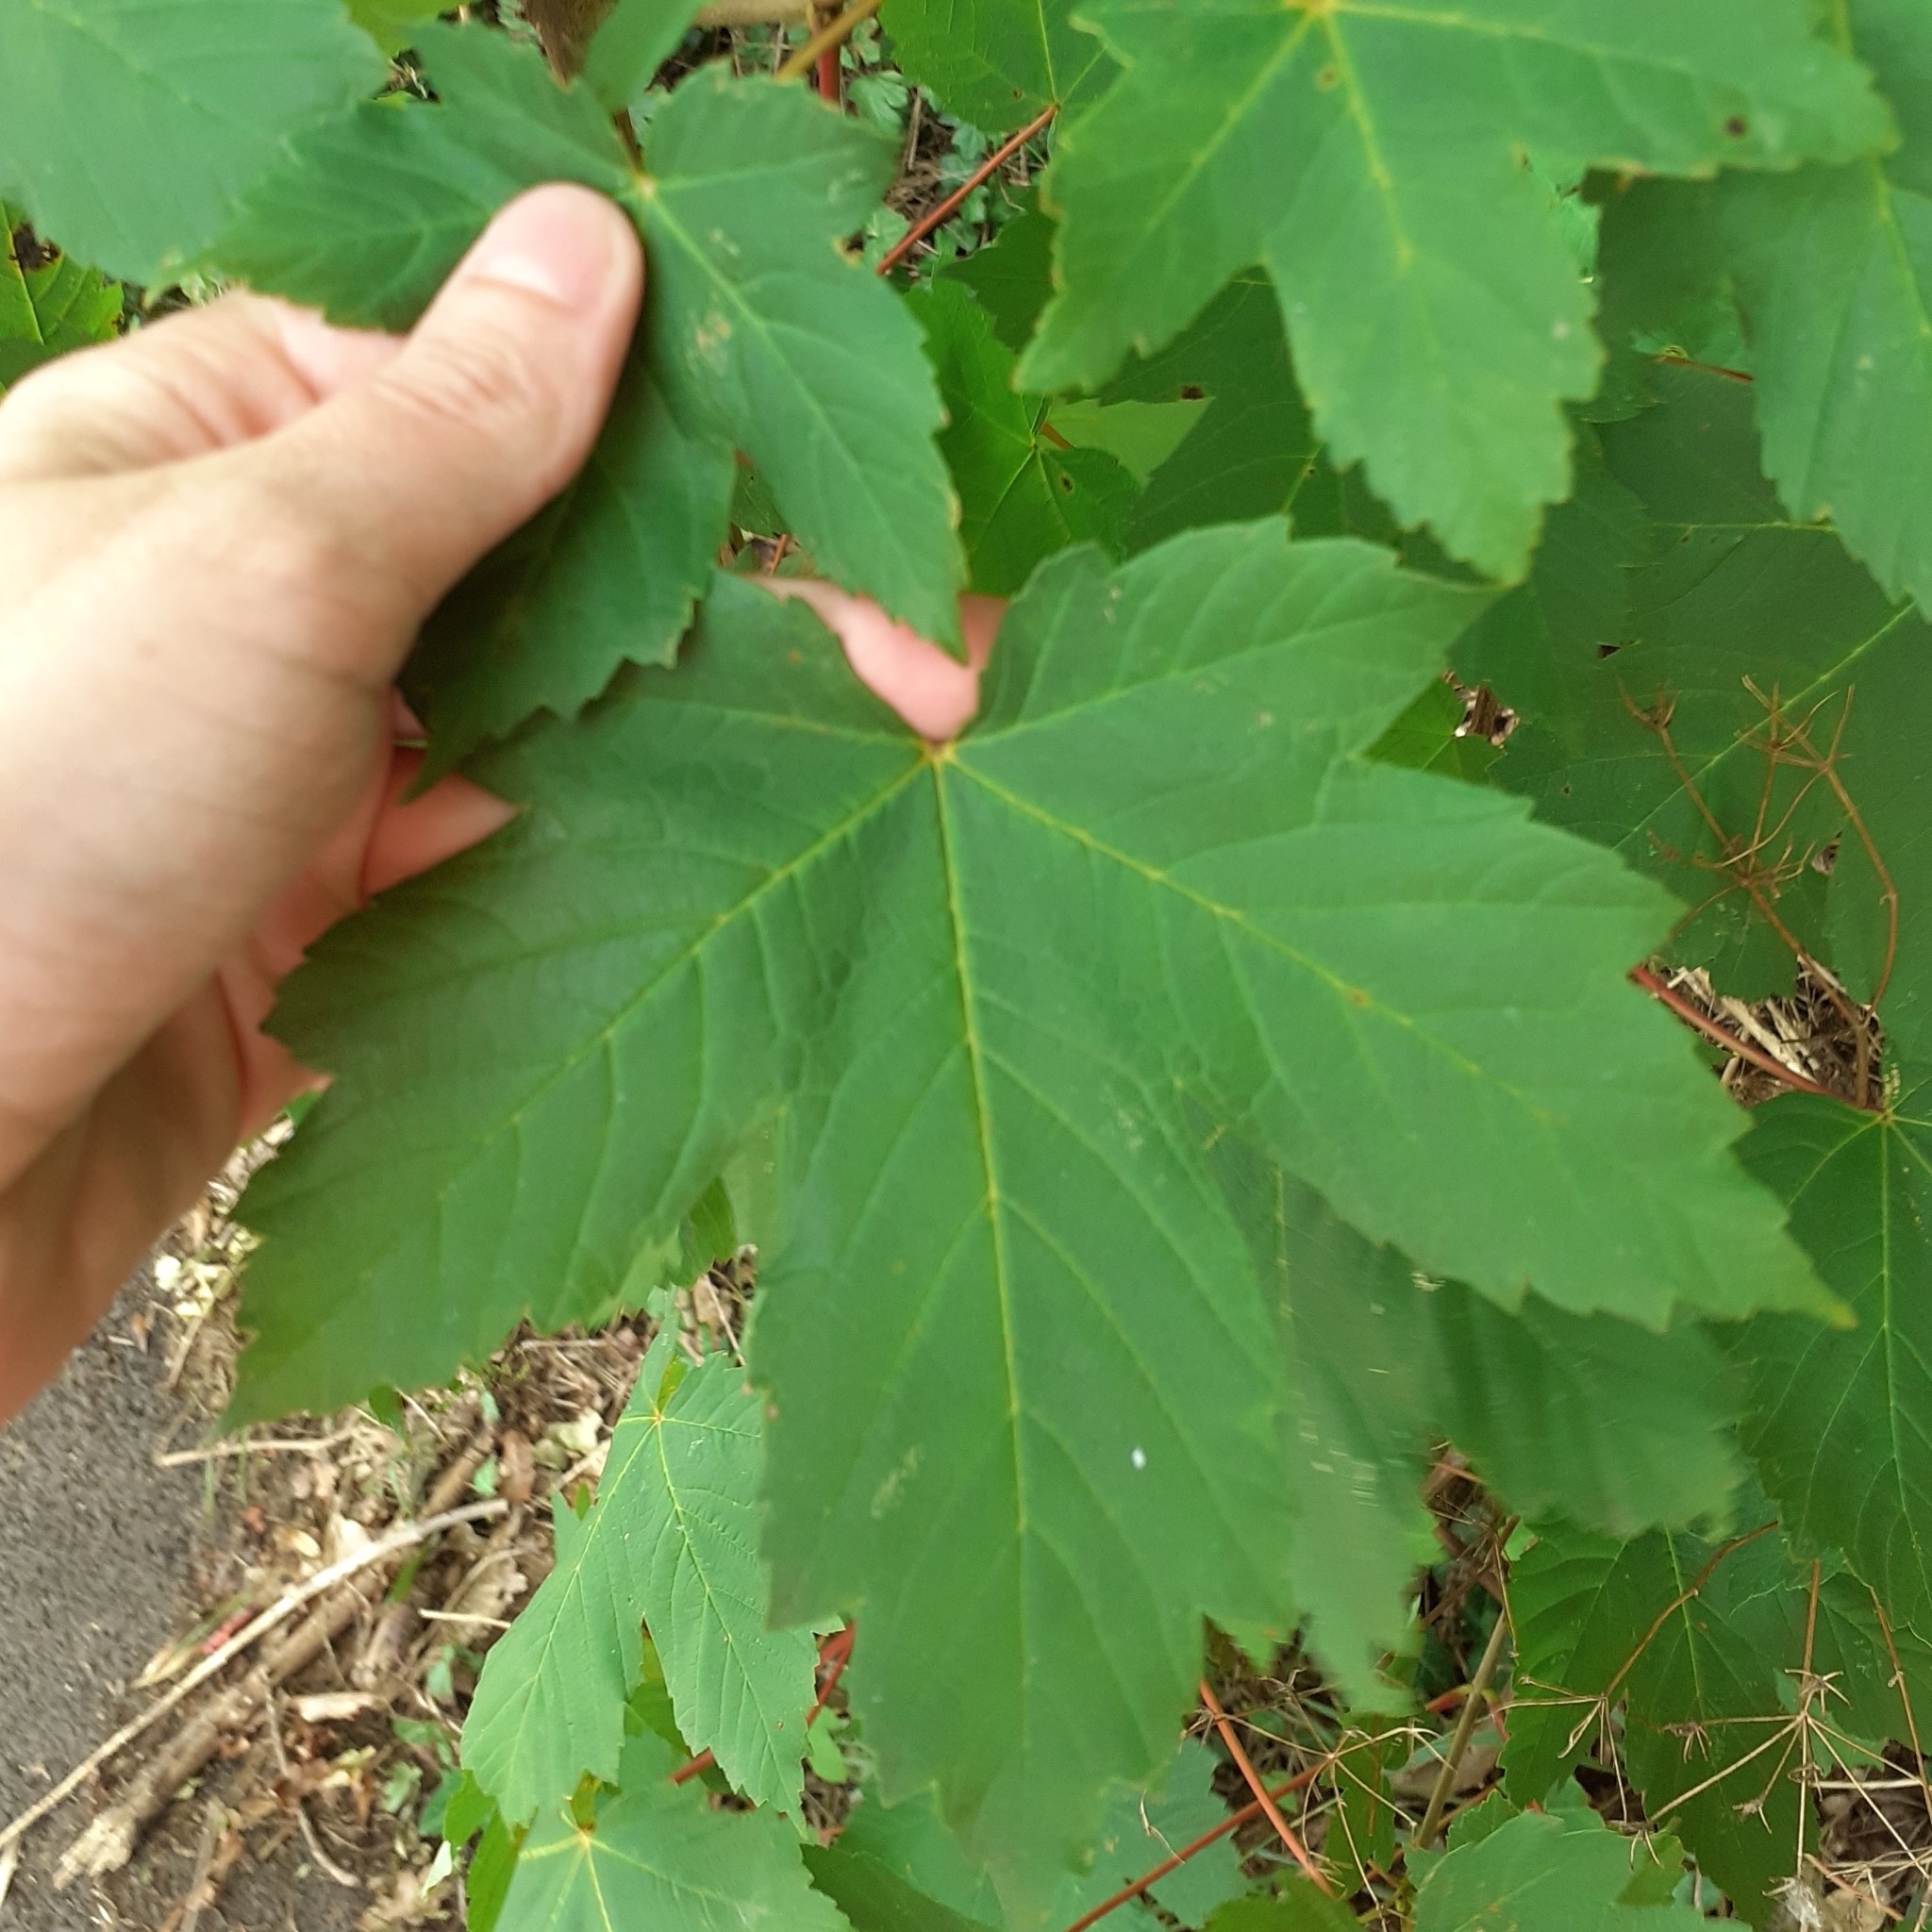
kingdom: Plantae
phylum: Tracheophyta
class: Magnoliopsida
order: Sapindales
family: Sapindaceae
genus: Acer
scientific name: Acer pseudoplatanus
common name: Sycamore
